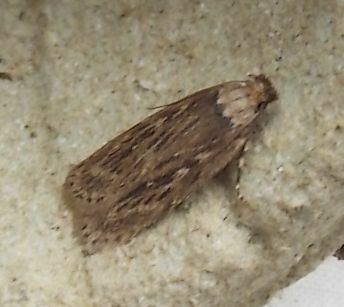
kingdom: Animalia
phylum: Arthropoda
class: Insecta
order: Lepidoptera
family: Depressariidae
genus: Depressaria
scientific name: Depressaria radiella
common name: Parsnip moth
